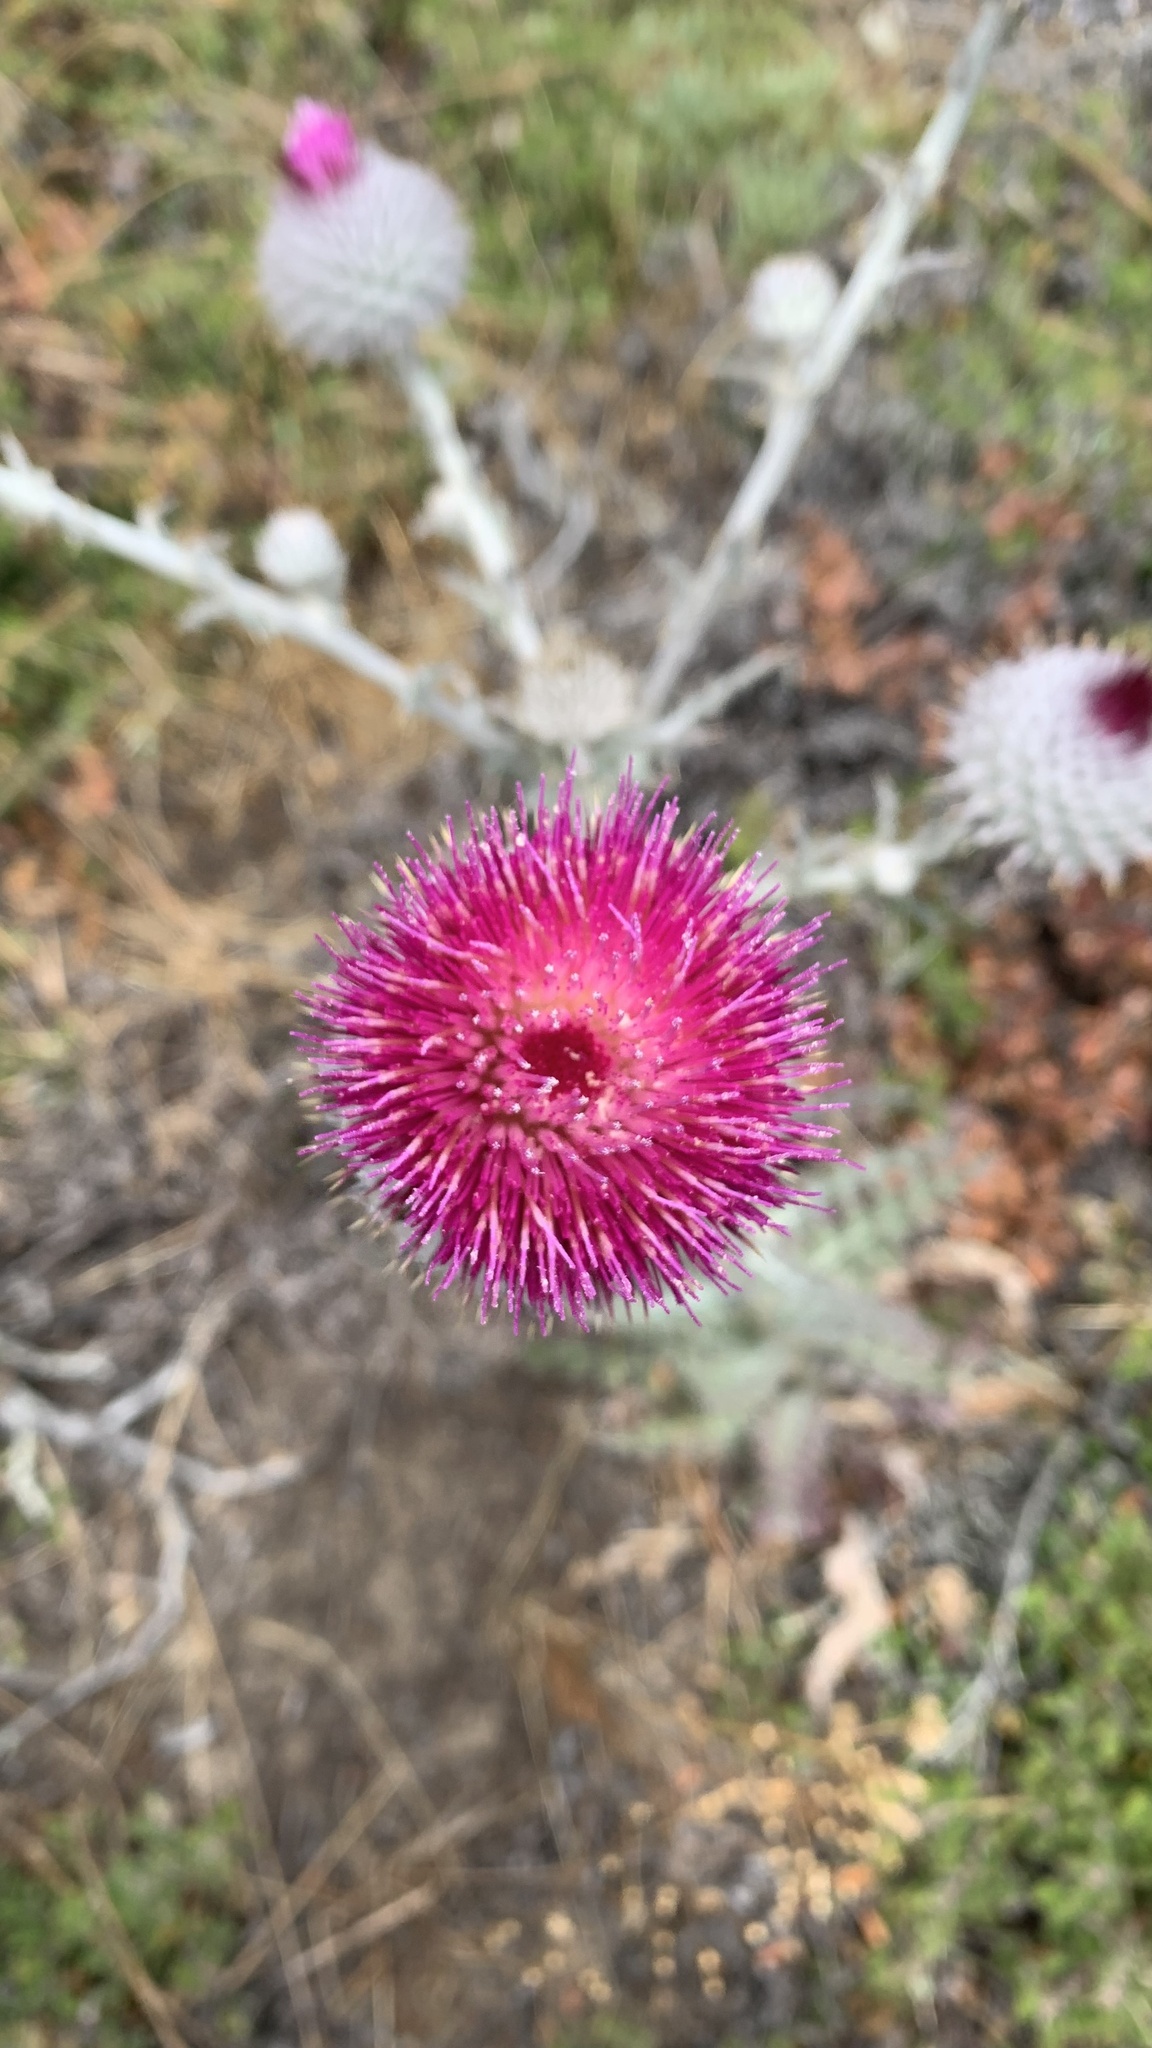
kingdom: Plantae
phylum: Tracheophyta
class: Magnoliopsida
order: Asterales
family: Asteraceae
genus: Cirsium
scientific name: Cirsium occidentale
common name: Western thistle
